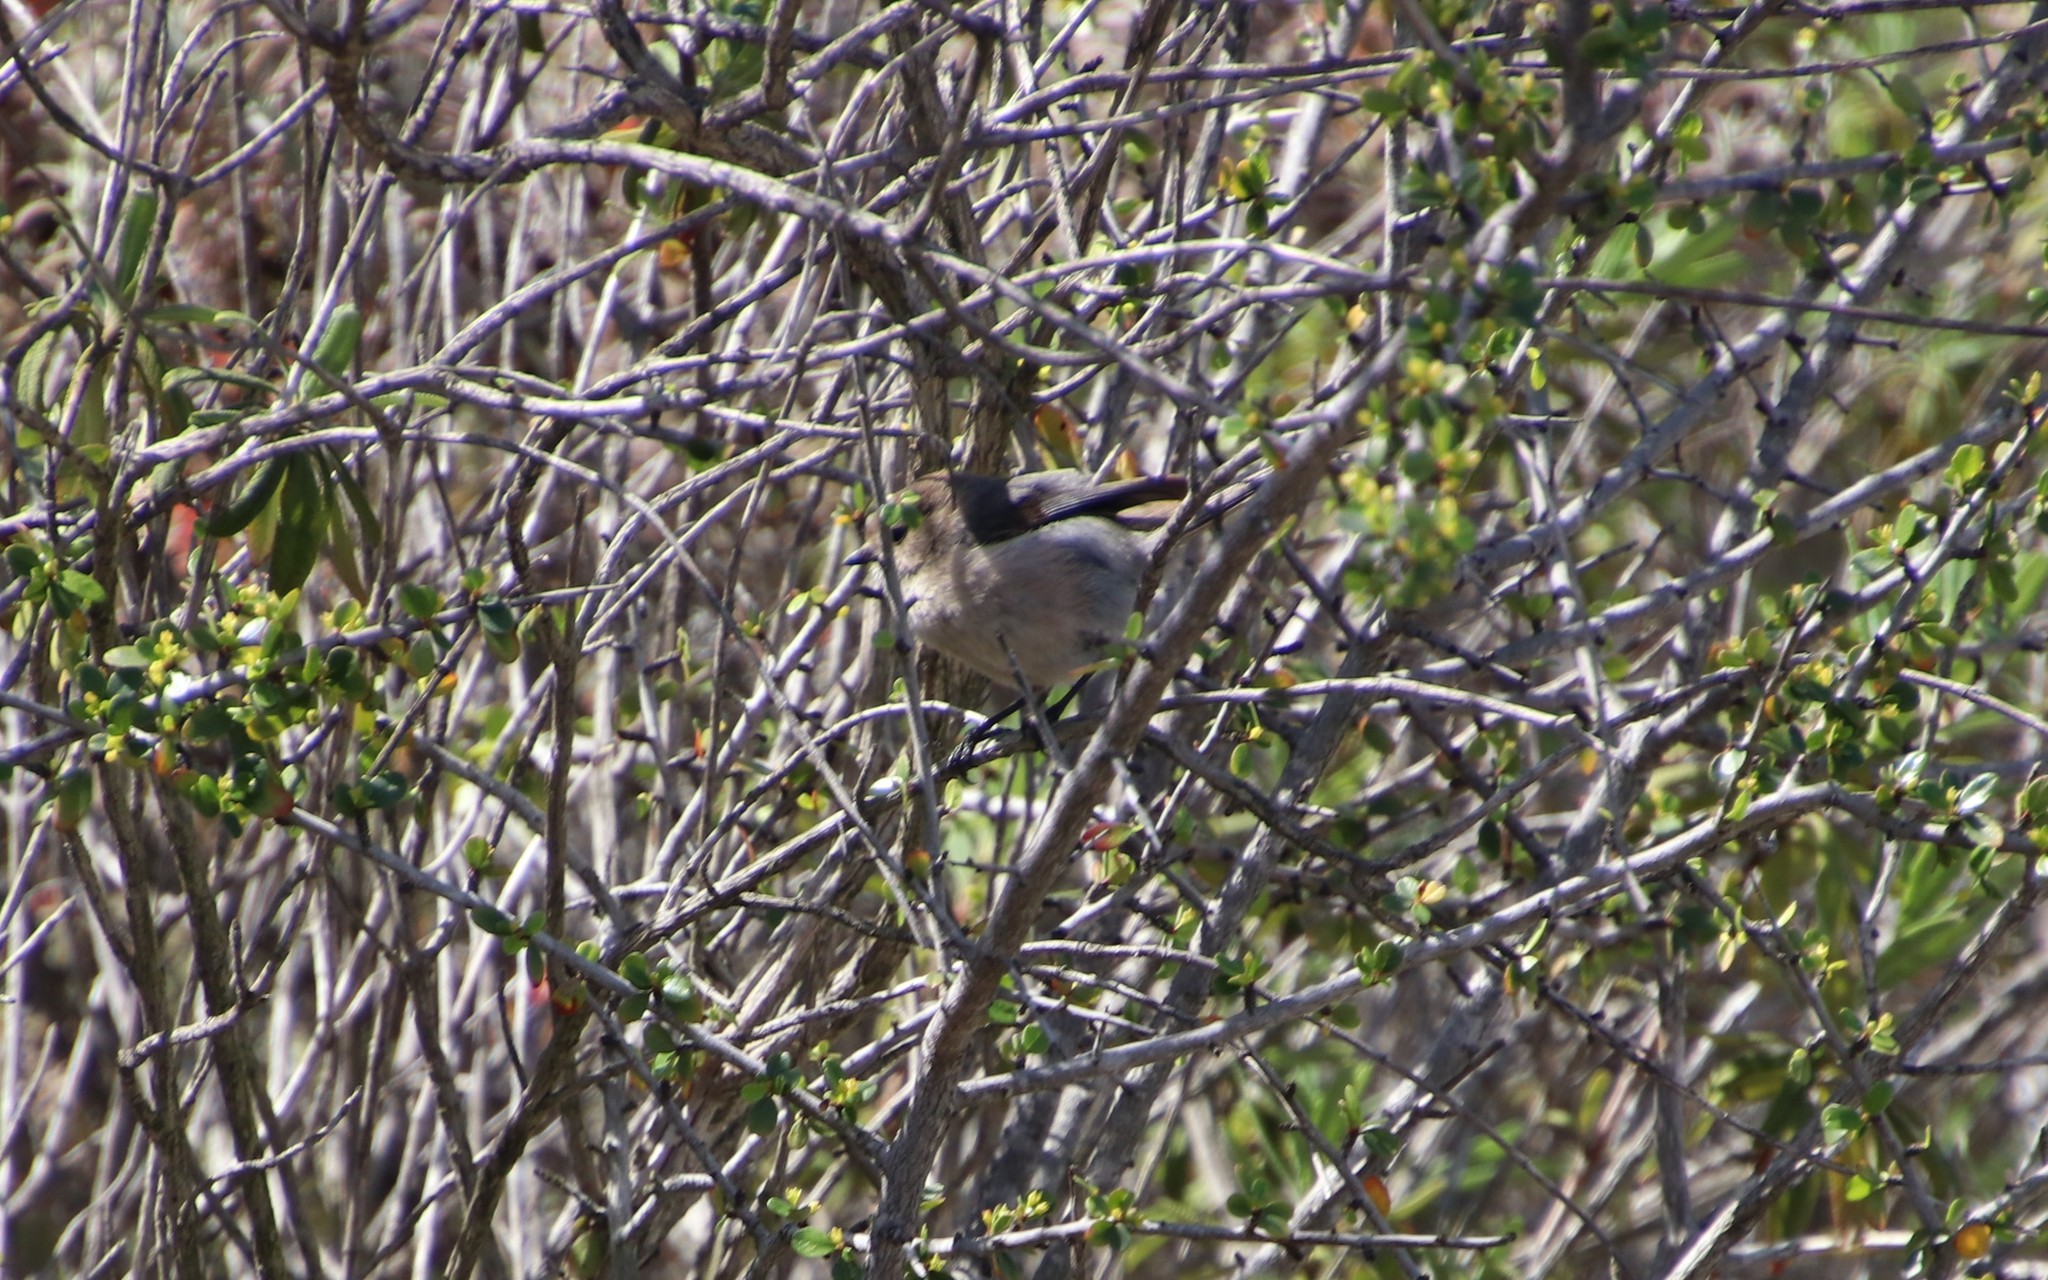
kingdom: Animalia
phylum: Chordata
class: Aves
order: Passeriformes
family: Aegithalidae
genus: Psaltriparus
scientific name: Psaltriparus minimus
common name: American bushtit
